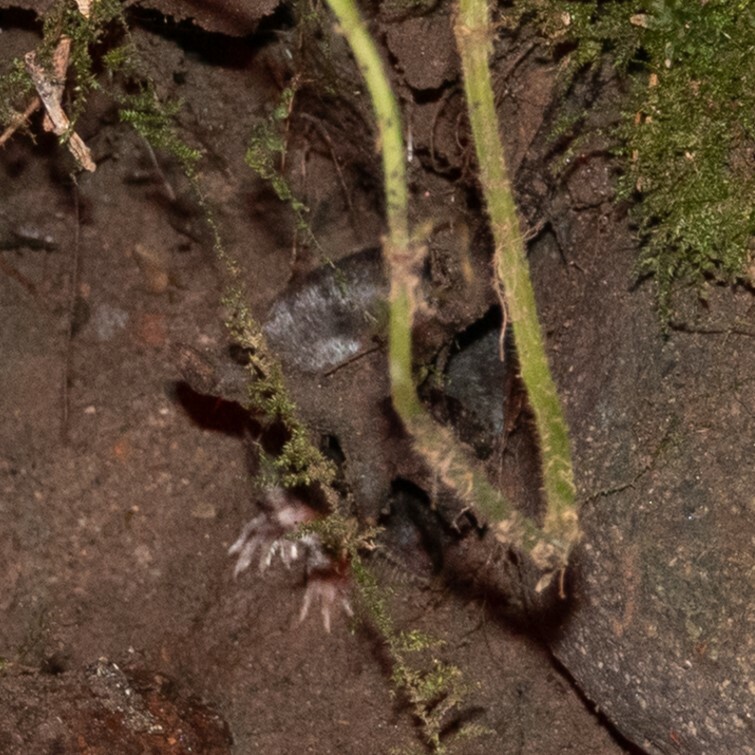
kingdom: Animalia
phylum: Chordata
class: Mammalia
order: Soricomorpha
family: Soricidae
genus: Neomys
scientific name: Neomys fodiens
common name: Eurasian water shrew
